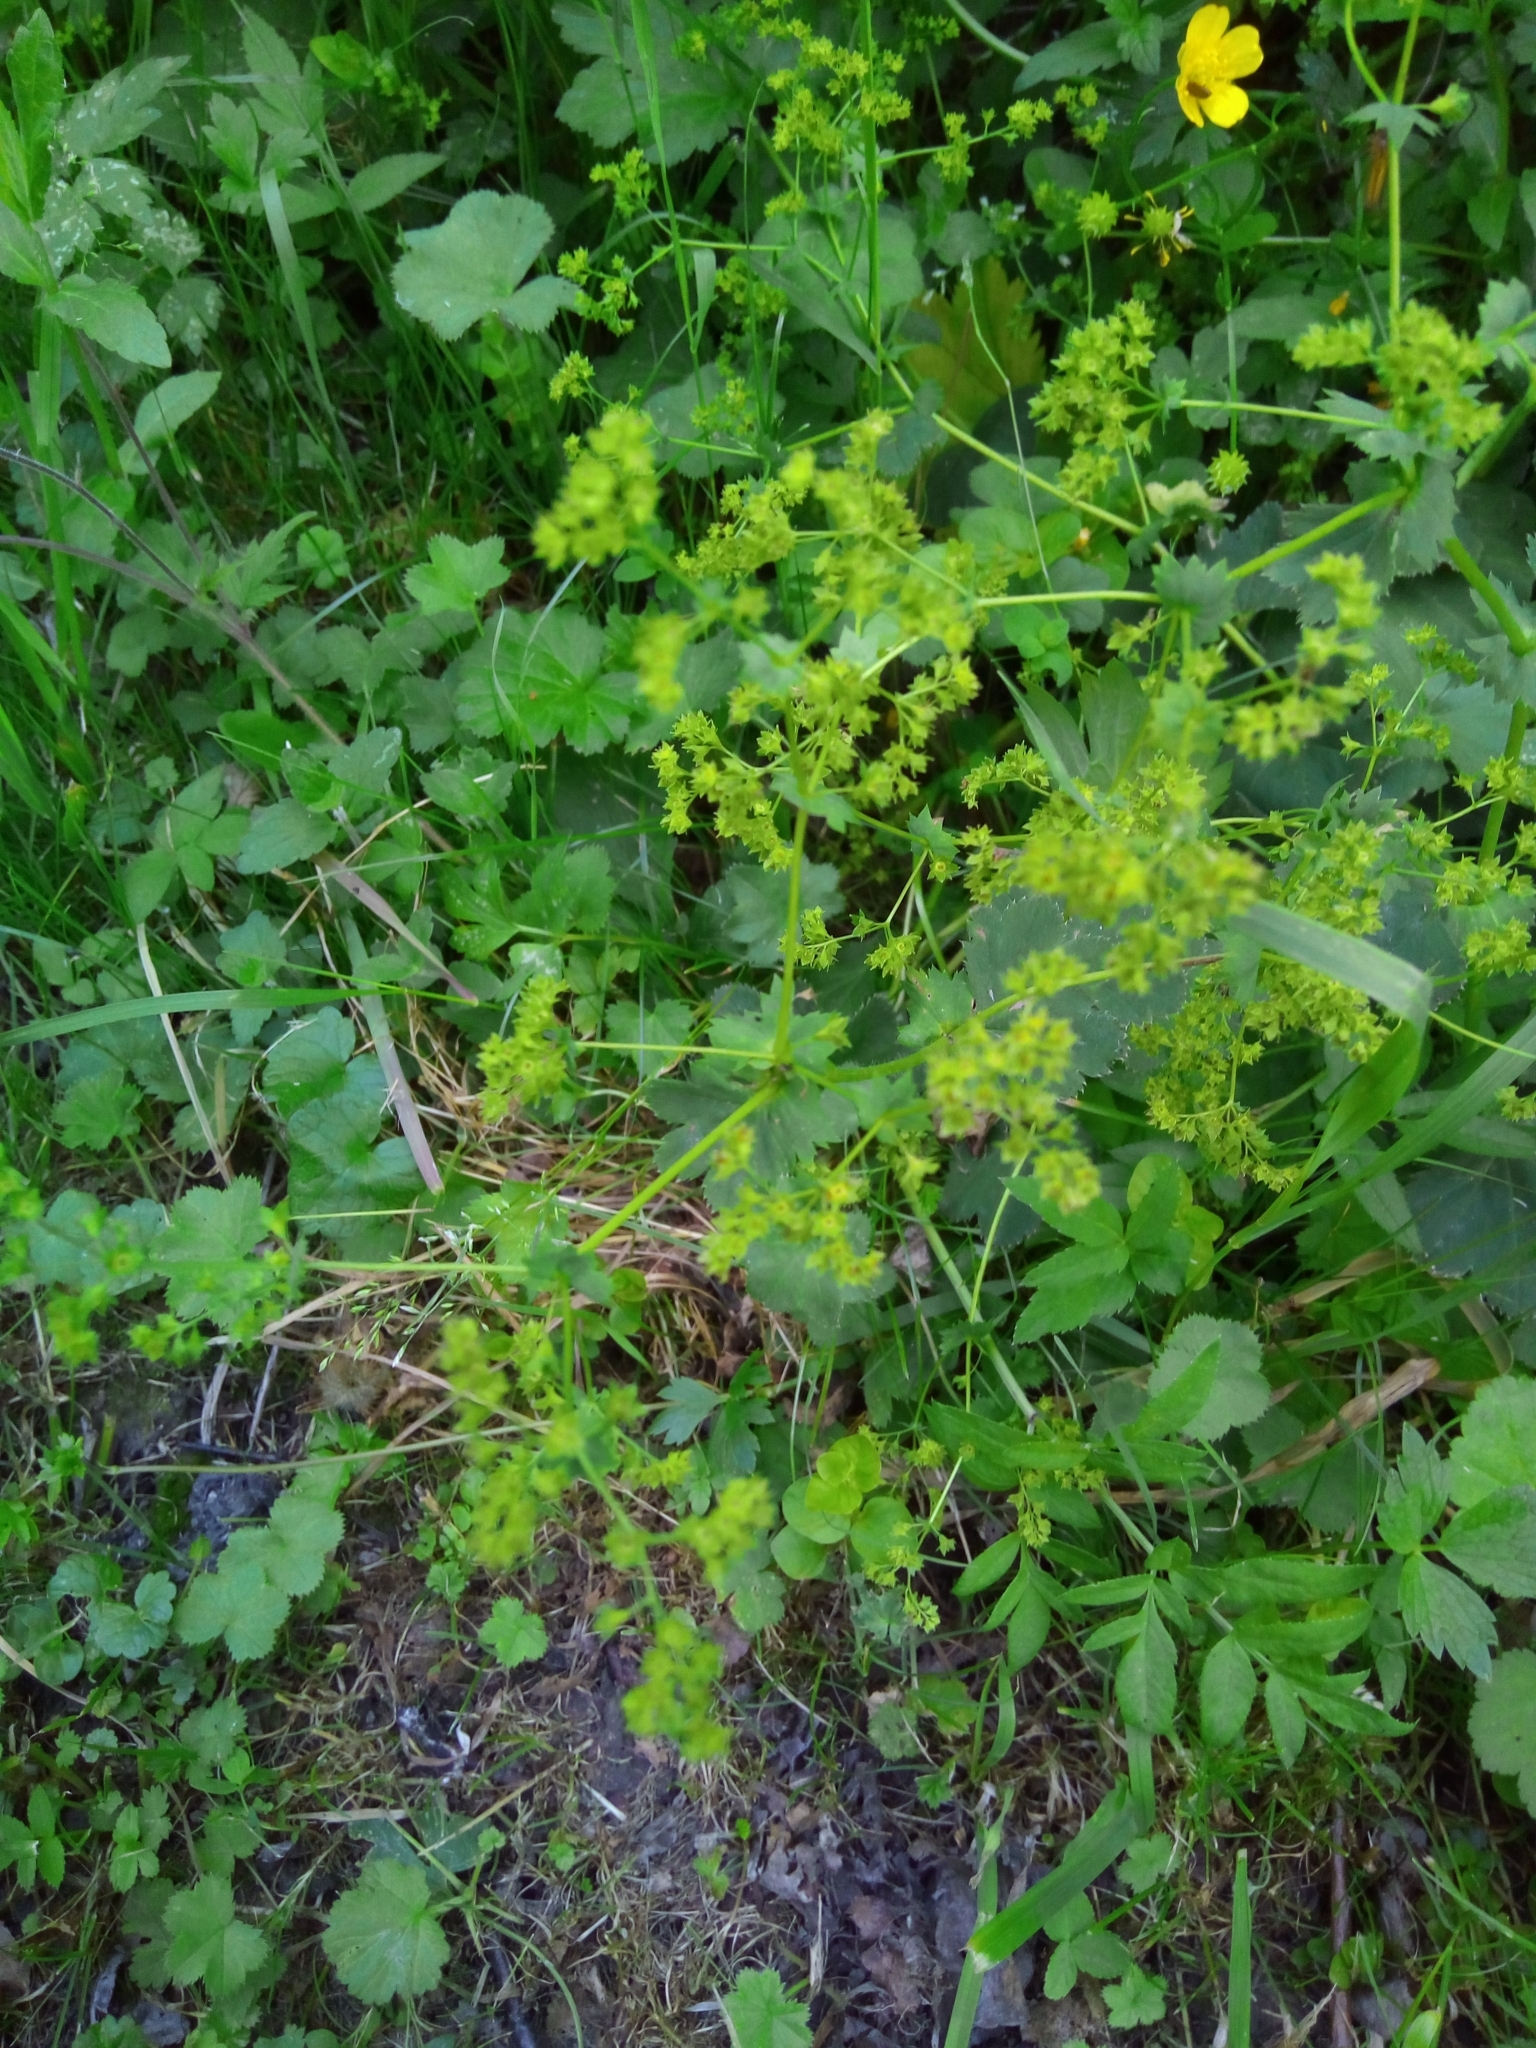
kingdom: Plantae
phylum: Tracheophyta
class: Magnoliopsida
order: Rosales
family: Rosaceae
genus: Alchemilla
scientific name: Alchemilla
